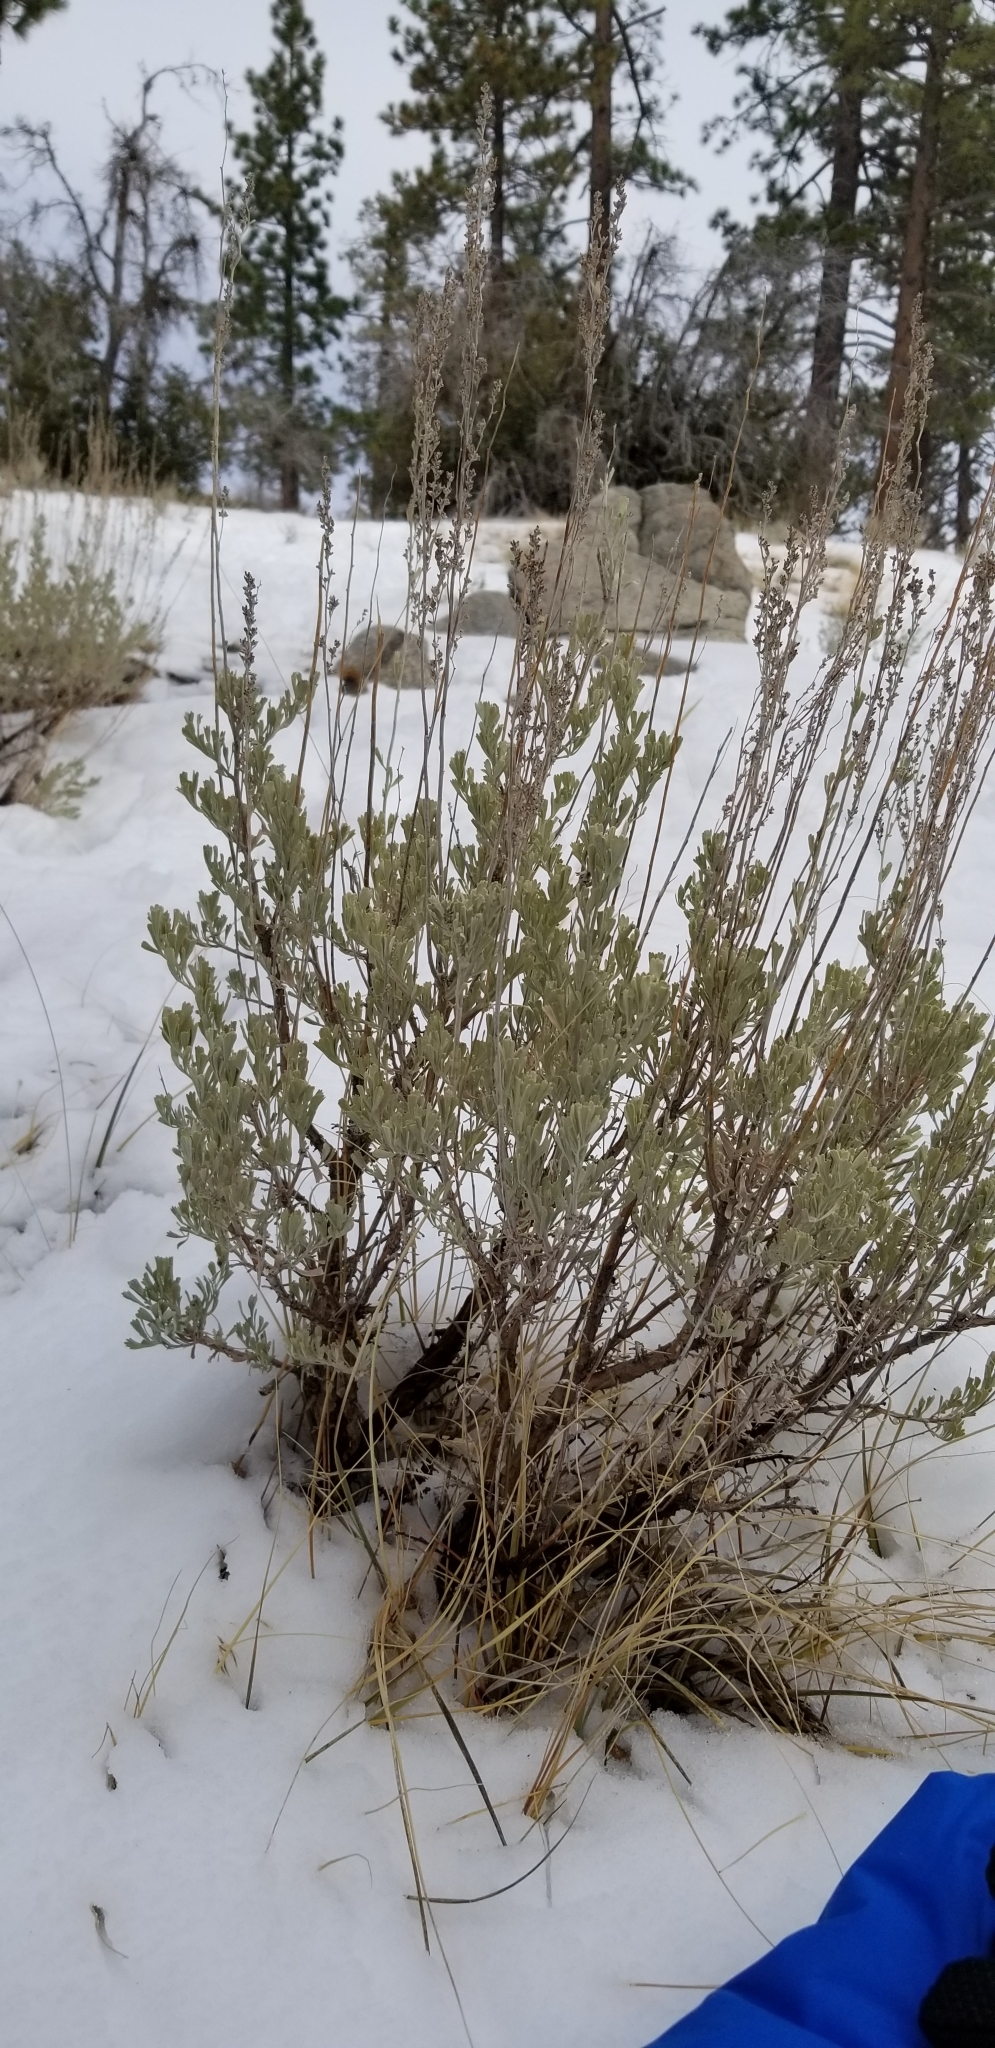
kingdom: Plantae
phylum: Tracheophyta
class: Magnoliopsida
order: Asterales
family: Asteraceae
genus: Artemisia
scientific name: Artemisia tridentata
